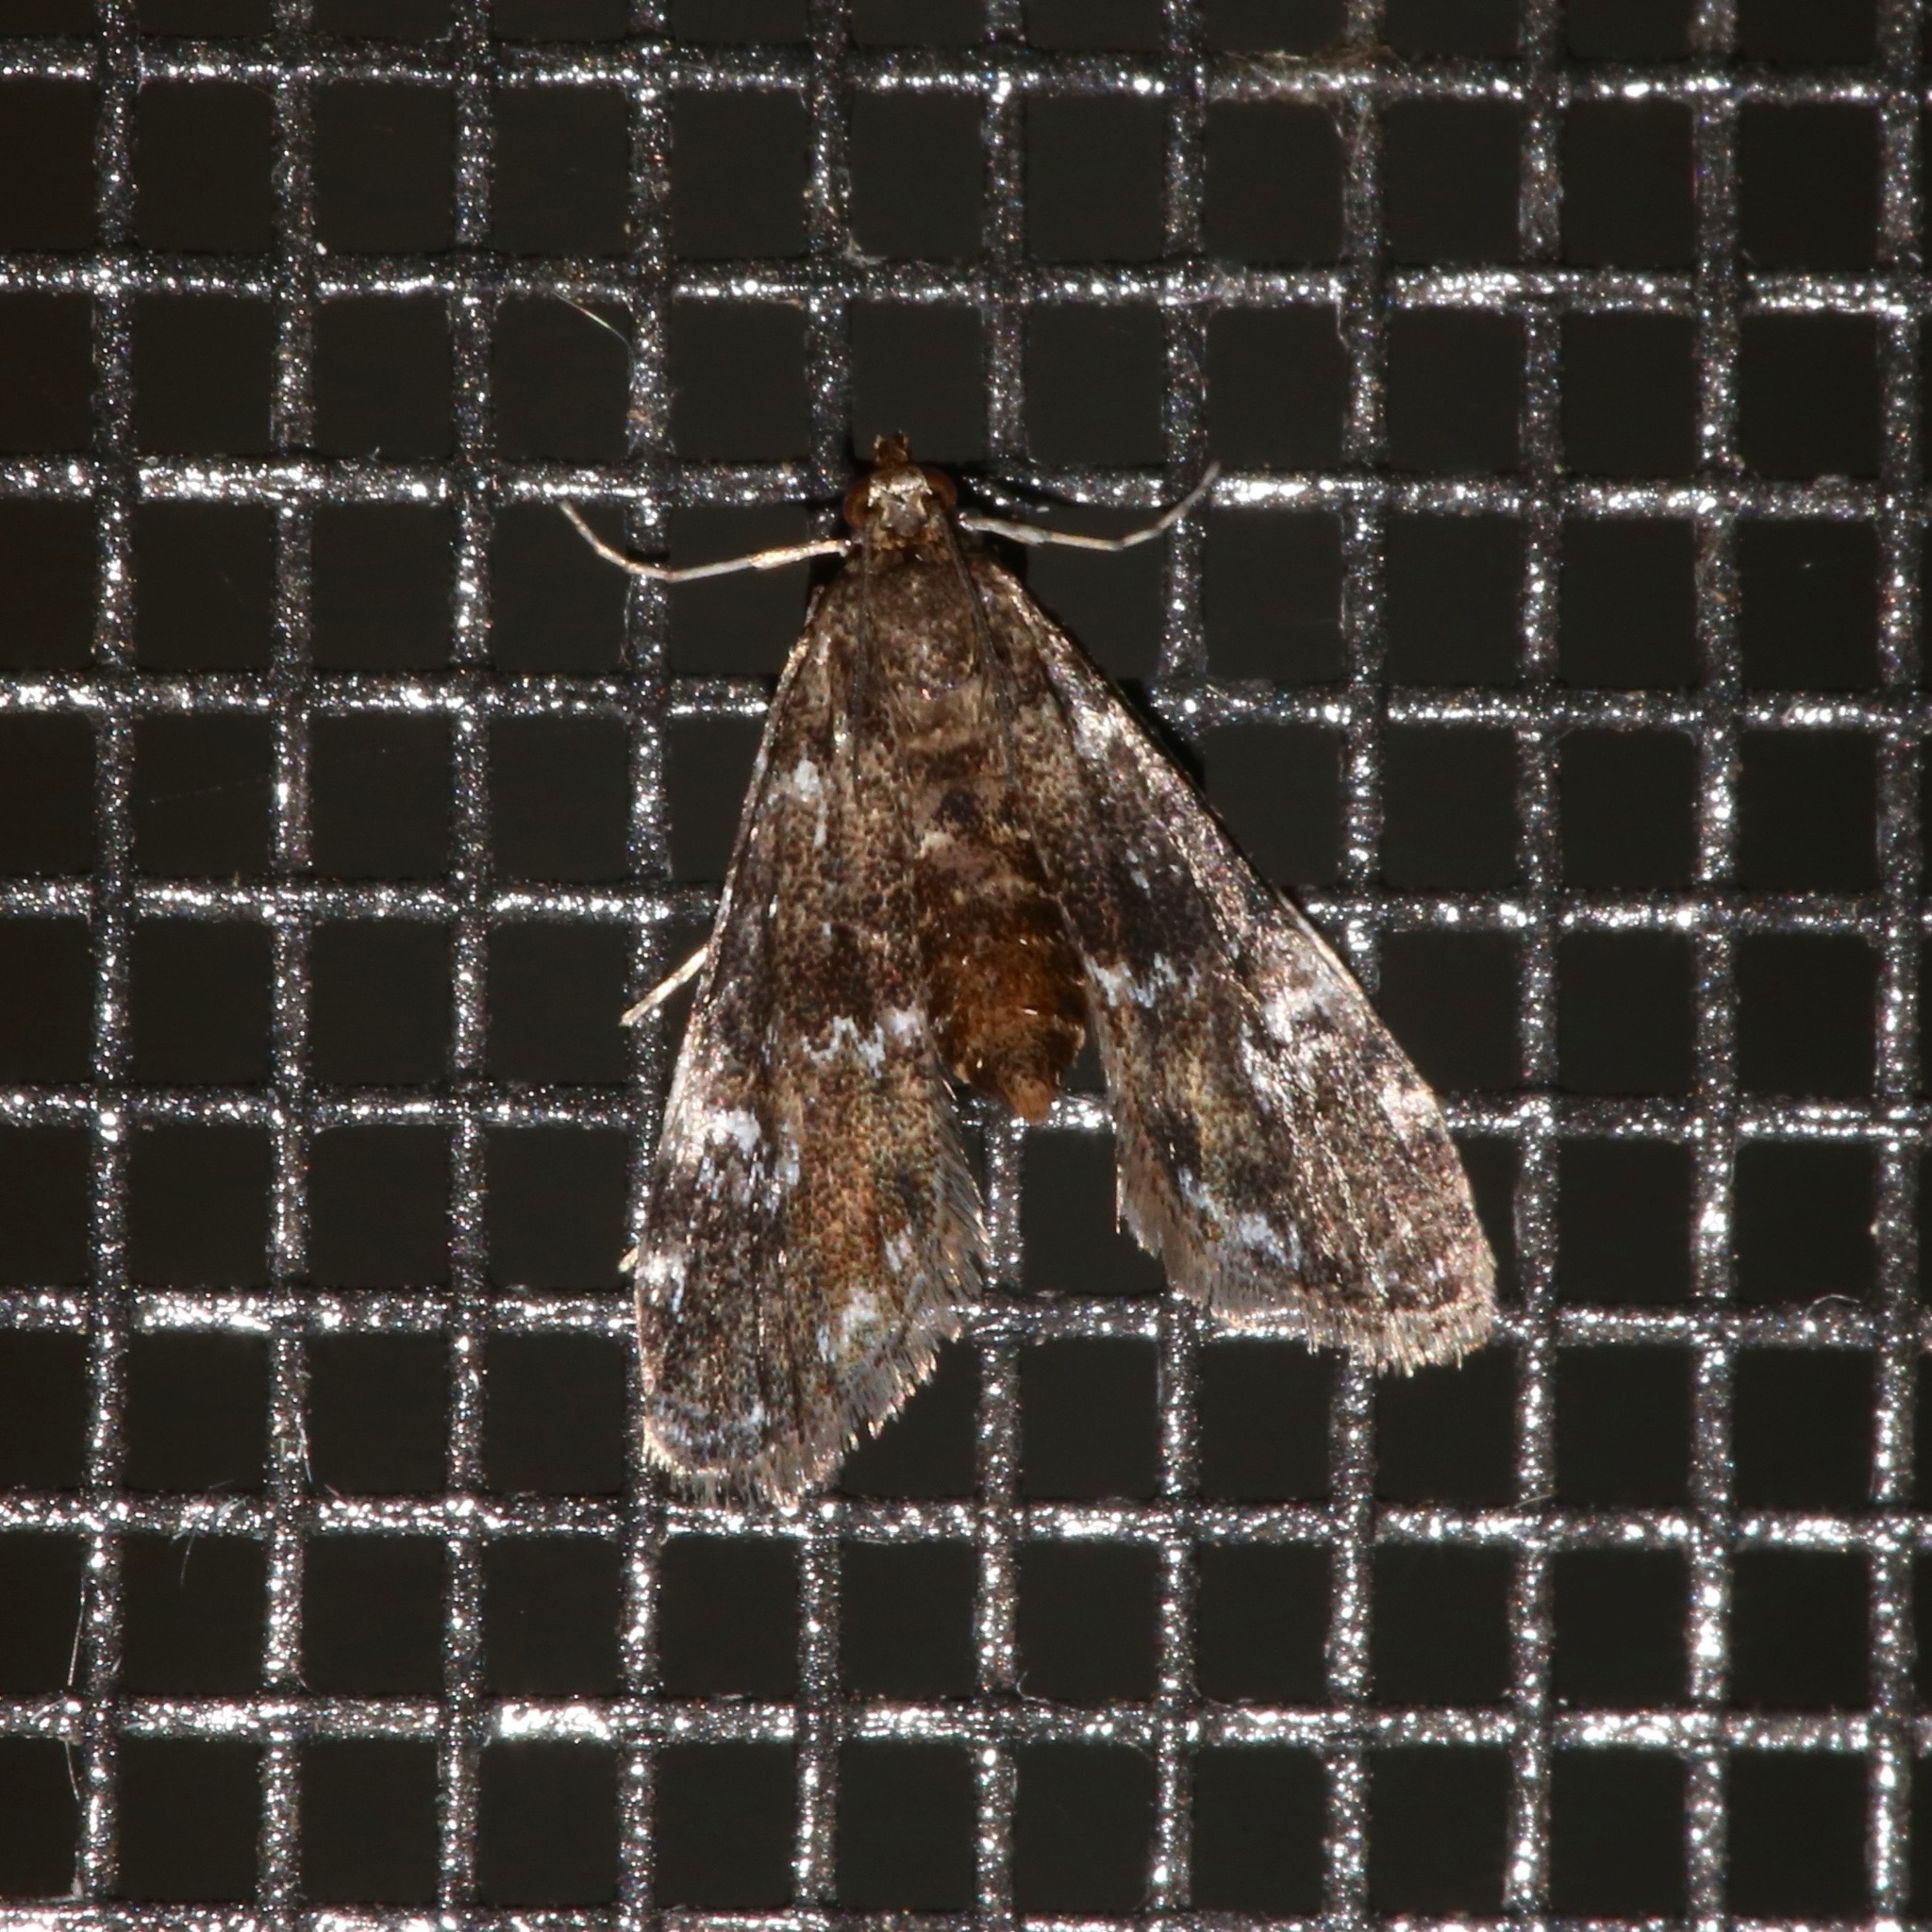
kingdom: Animalia
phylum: Arthropoda
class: Insecta
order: Lepidoptera
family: Crambidae
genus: Elophila
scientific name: Elophila obliteralis
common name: Waterlily leafcutter moth
